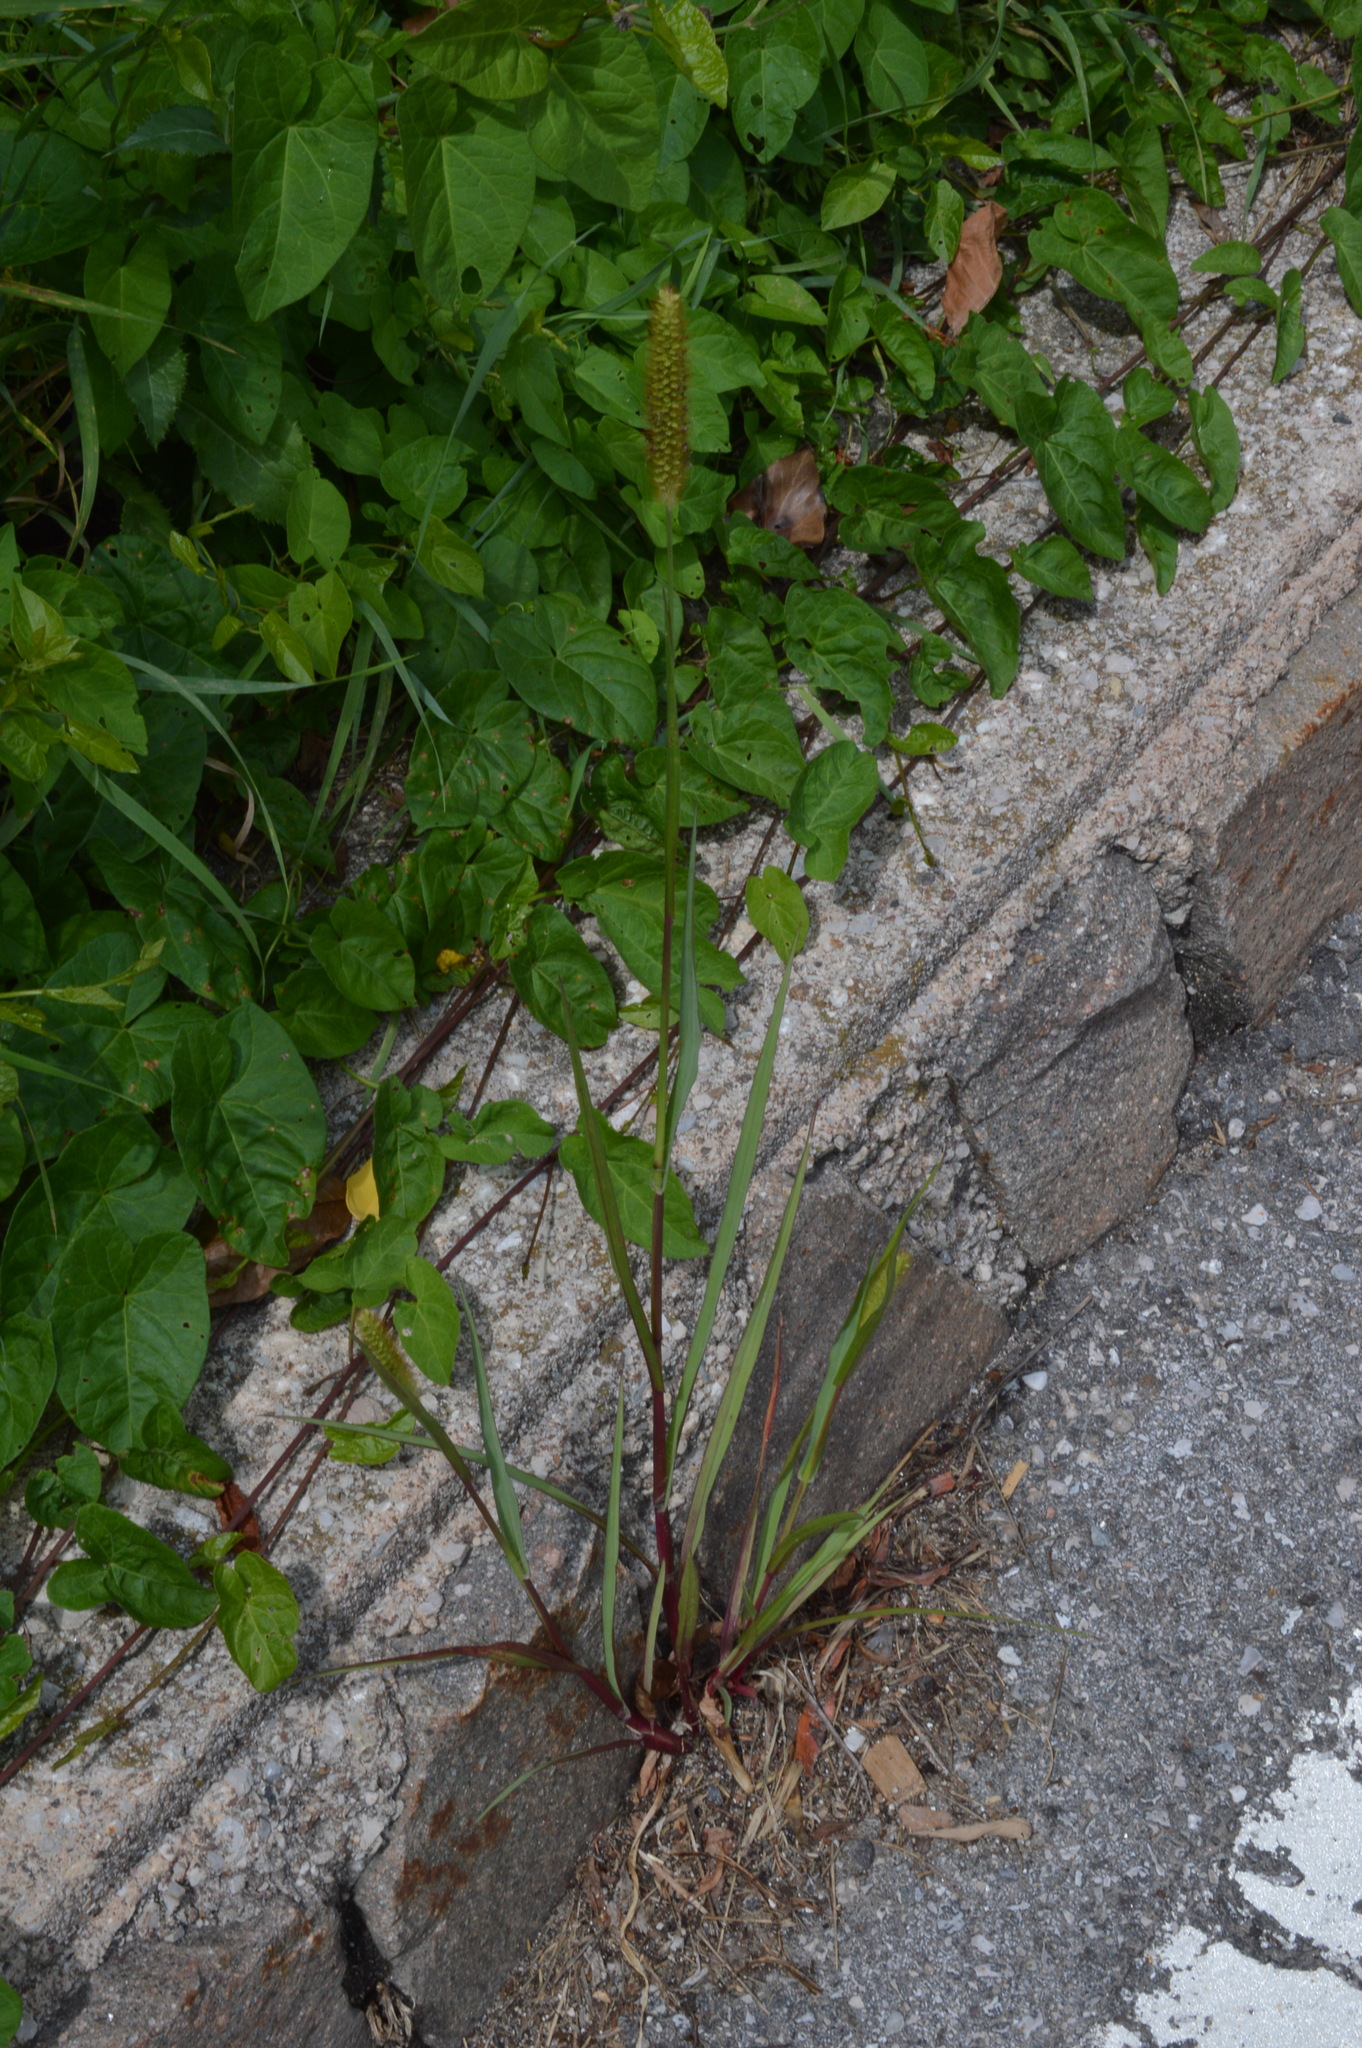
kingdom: Plantae
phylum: Tracheophyta
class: Liliopsida
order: Poales
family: Poaceae
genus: Setaria
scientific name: Setaria pumila
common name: Yellow bristle-grass
